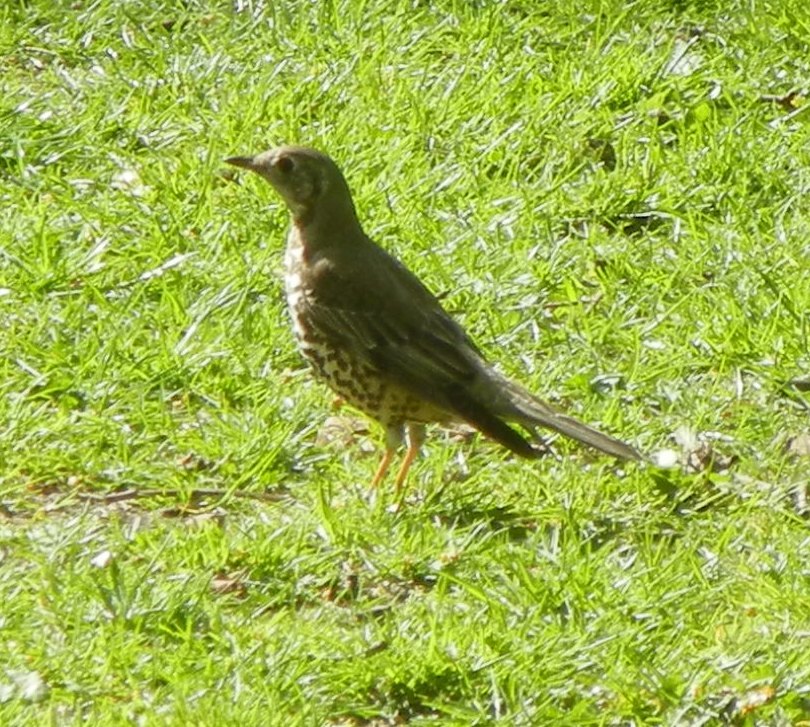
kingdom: Animalia
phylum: Chordata
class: Aves
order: Passeriformes
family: Turdidae
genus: Turdus
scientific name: Turdus viscivorus
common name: Mistle thrush
